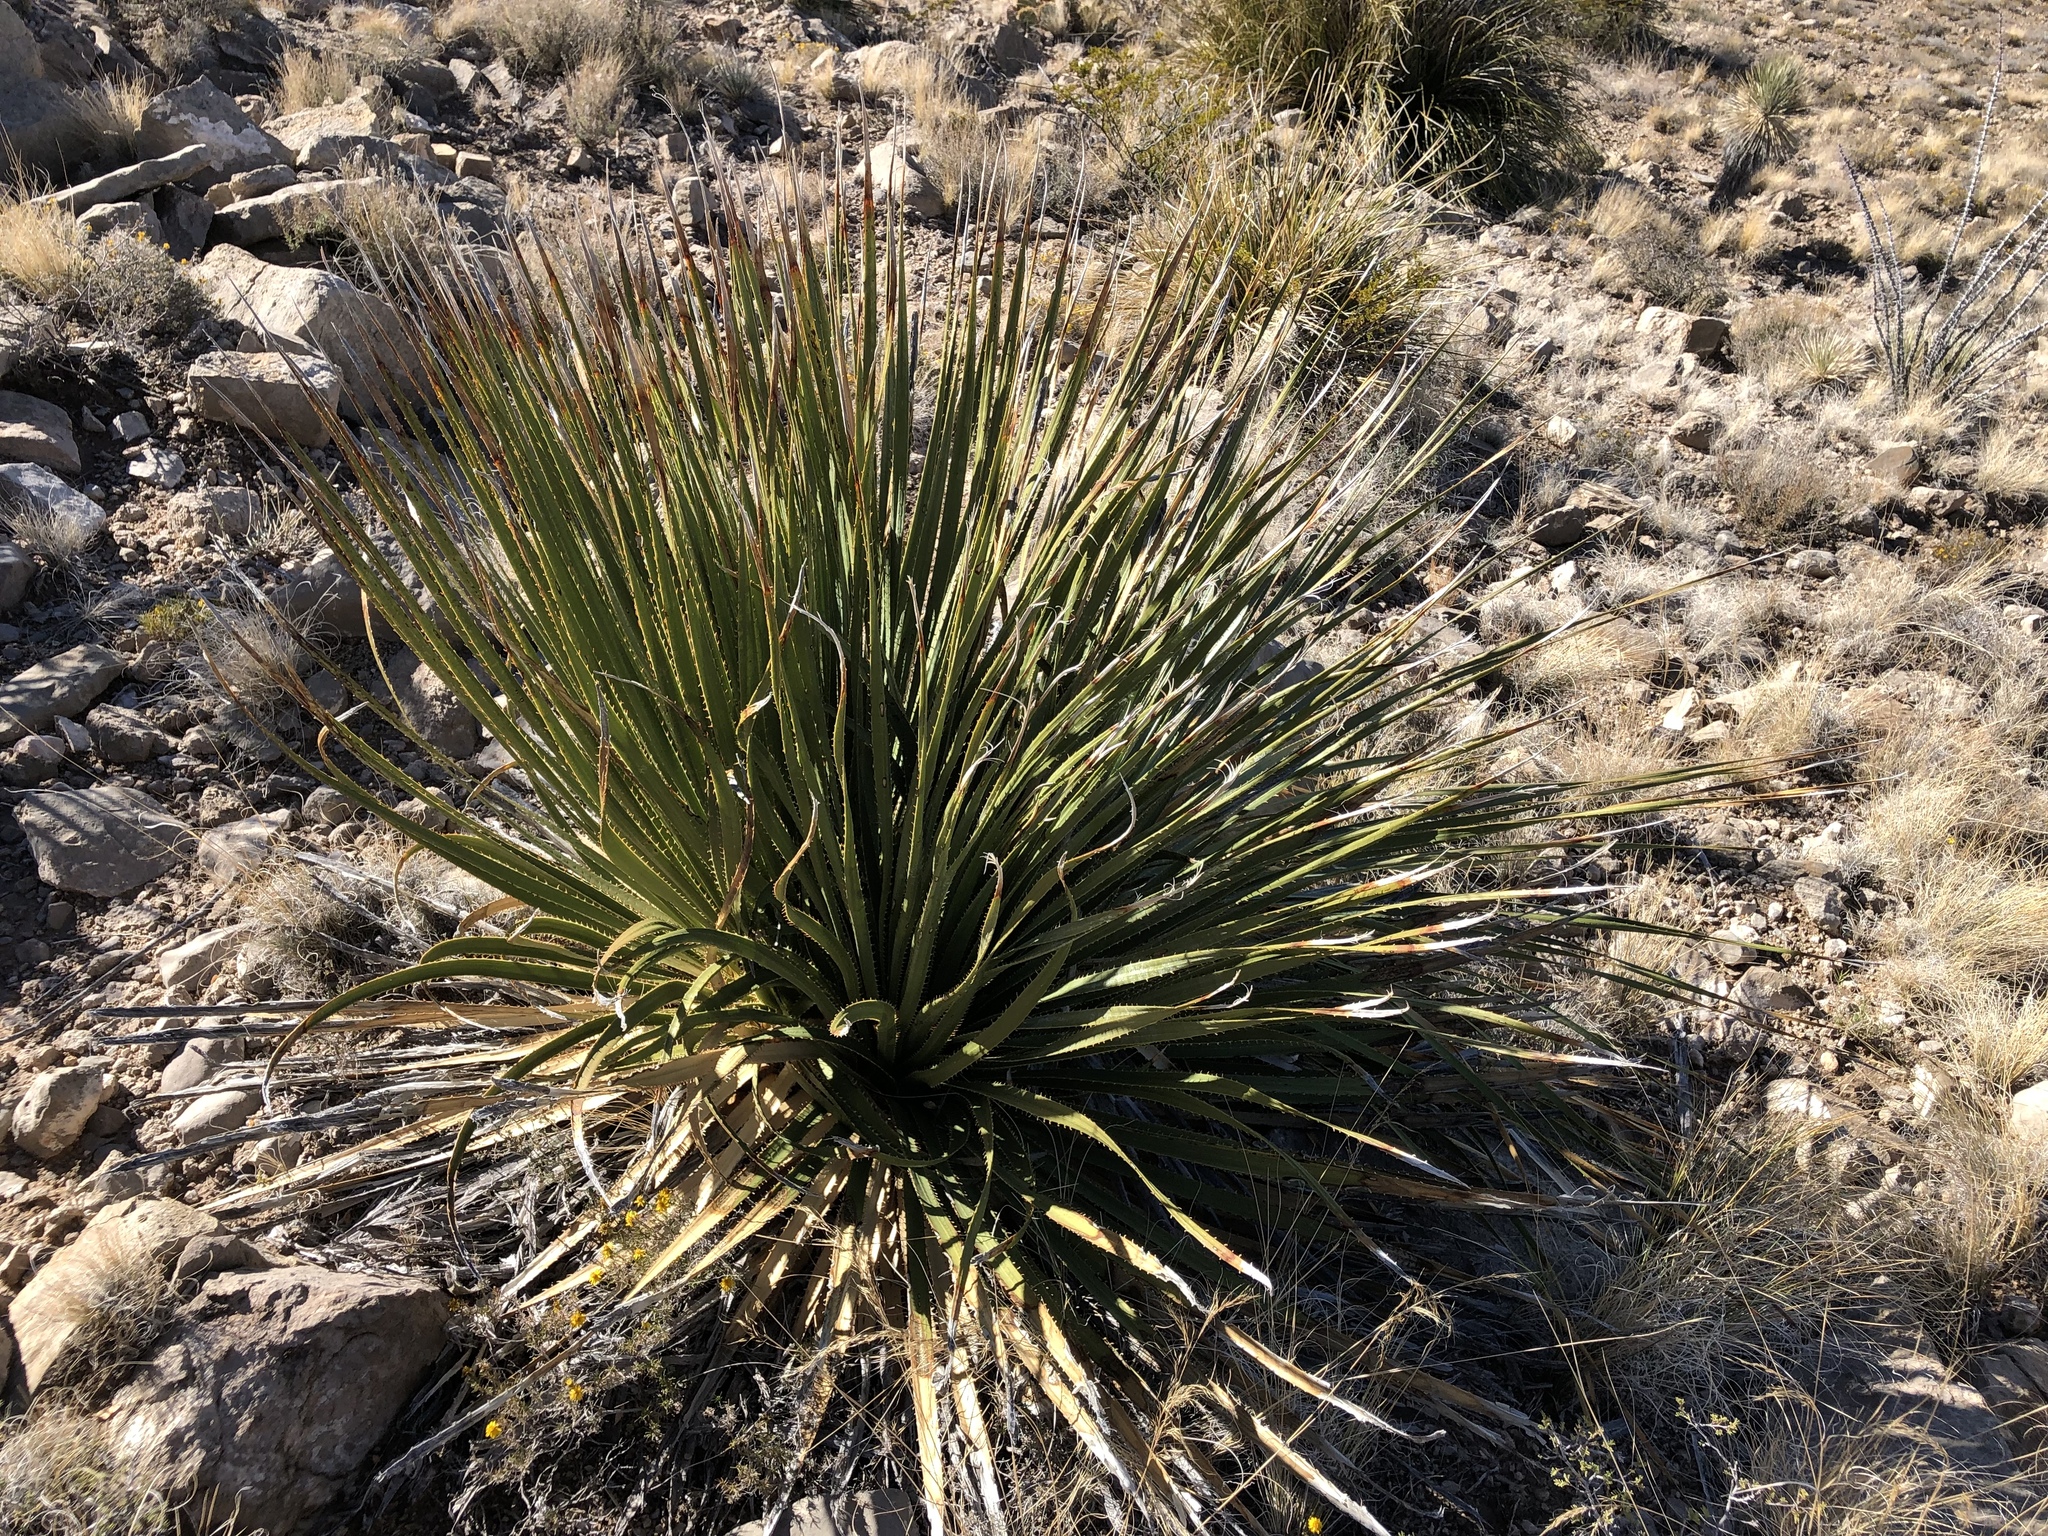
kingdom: Plantae
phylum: Tracheophyta
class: Liliopsida
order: Asparagales
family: Asparagaceae
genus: Dasylirion
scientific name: Dasylirion wheeleri
